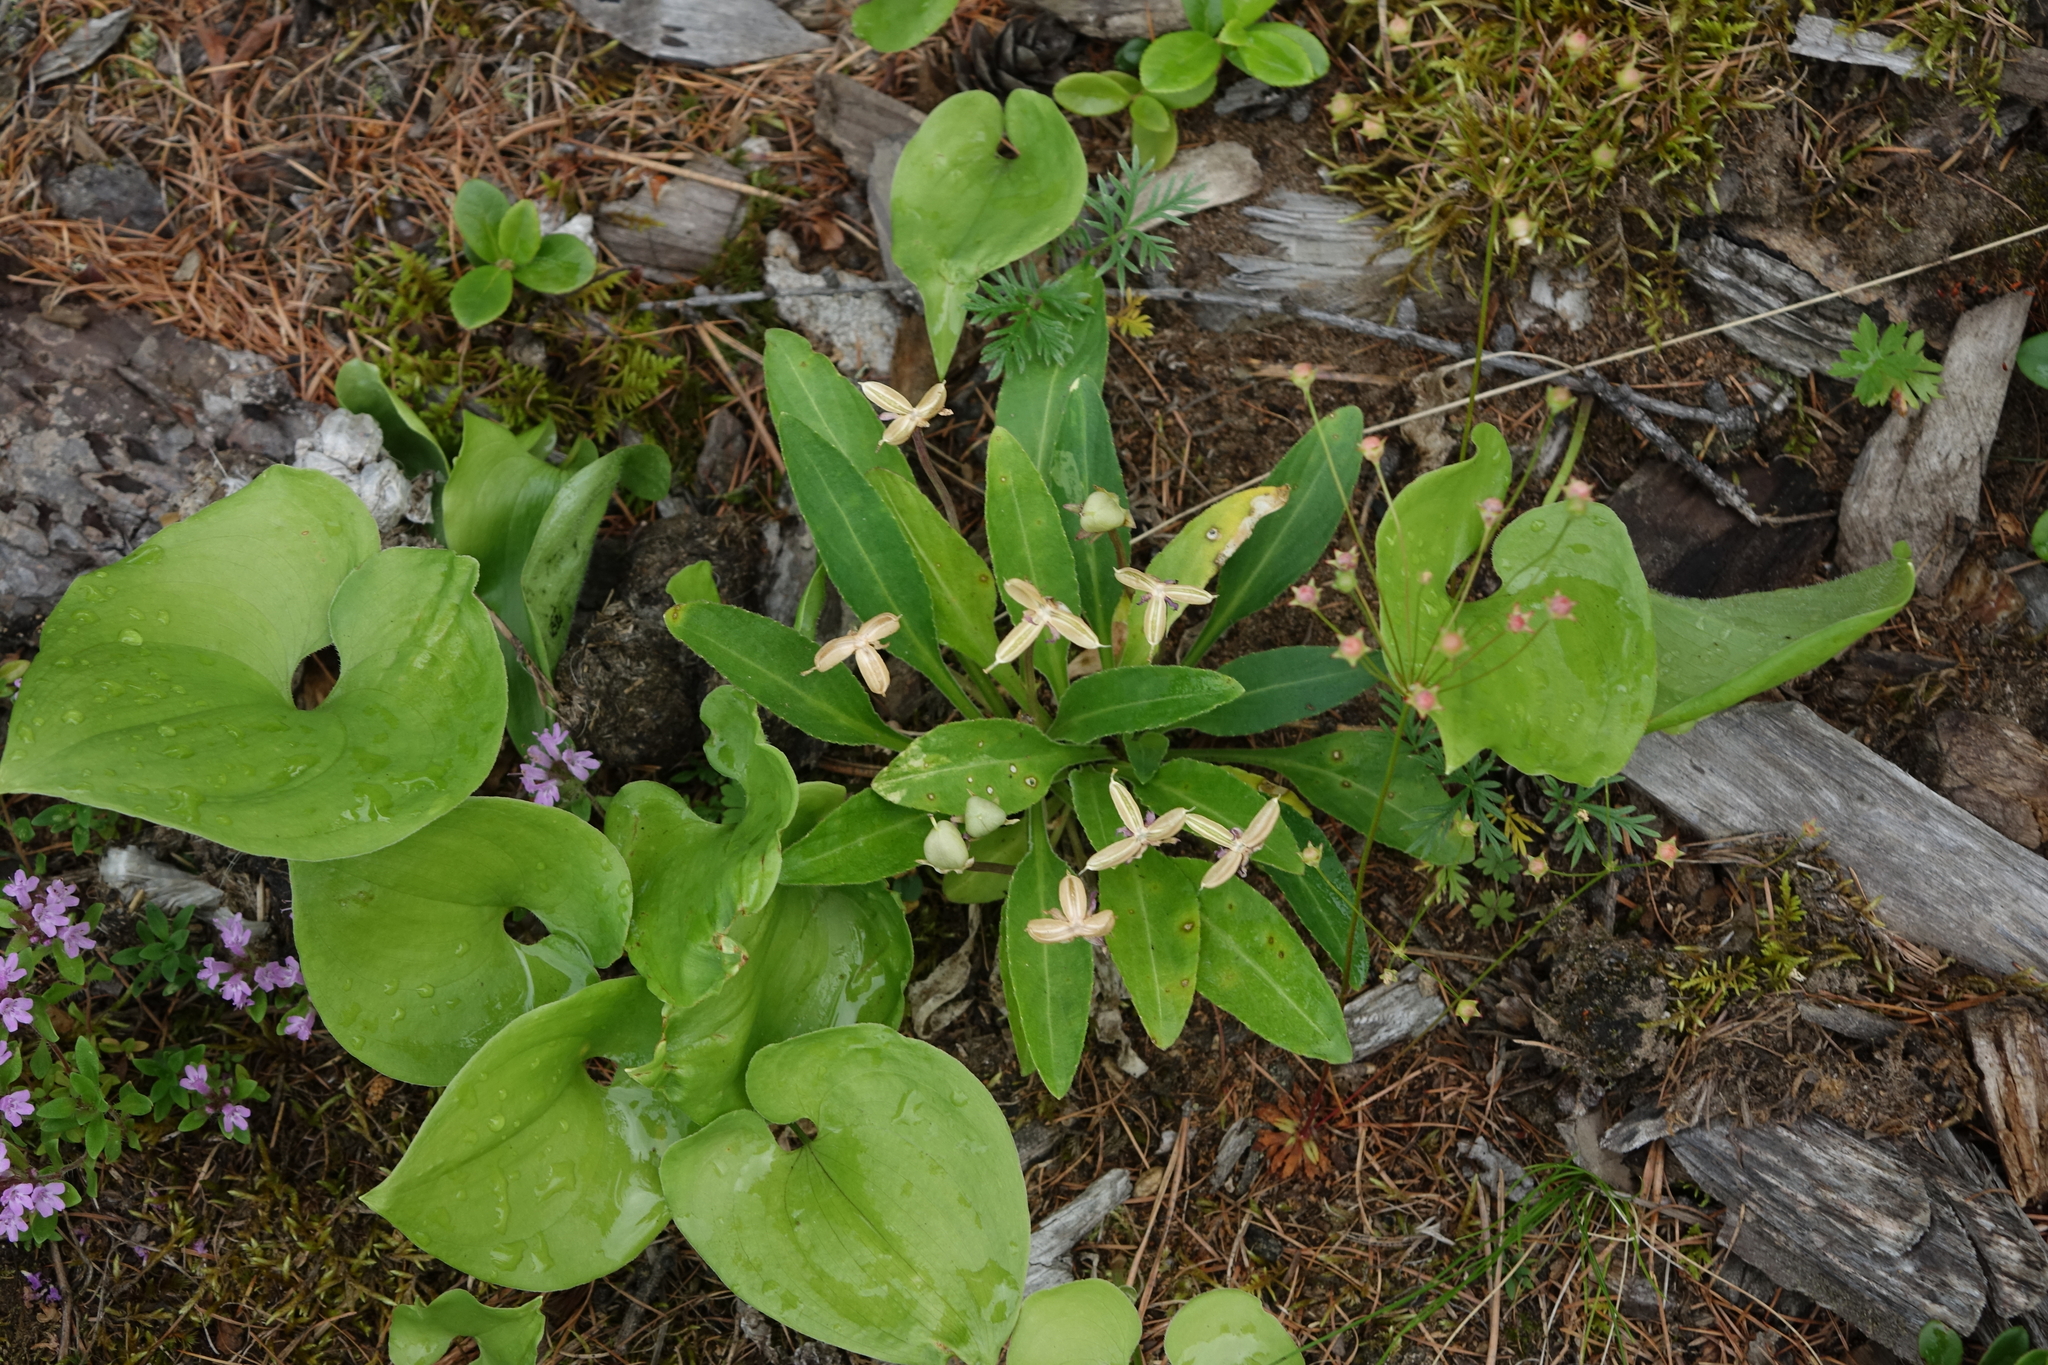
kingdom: Plantae
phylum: Tracheophyta
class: Magnoliopsida
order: Malpighiales
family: Violaceae
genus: Viola
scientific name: Viola gmeliniana
